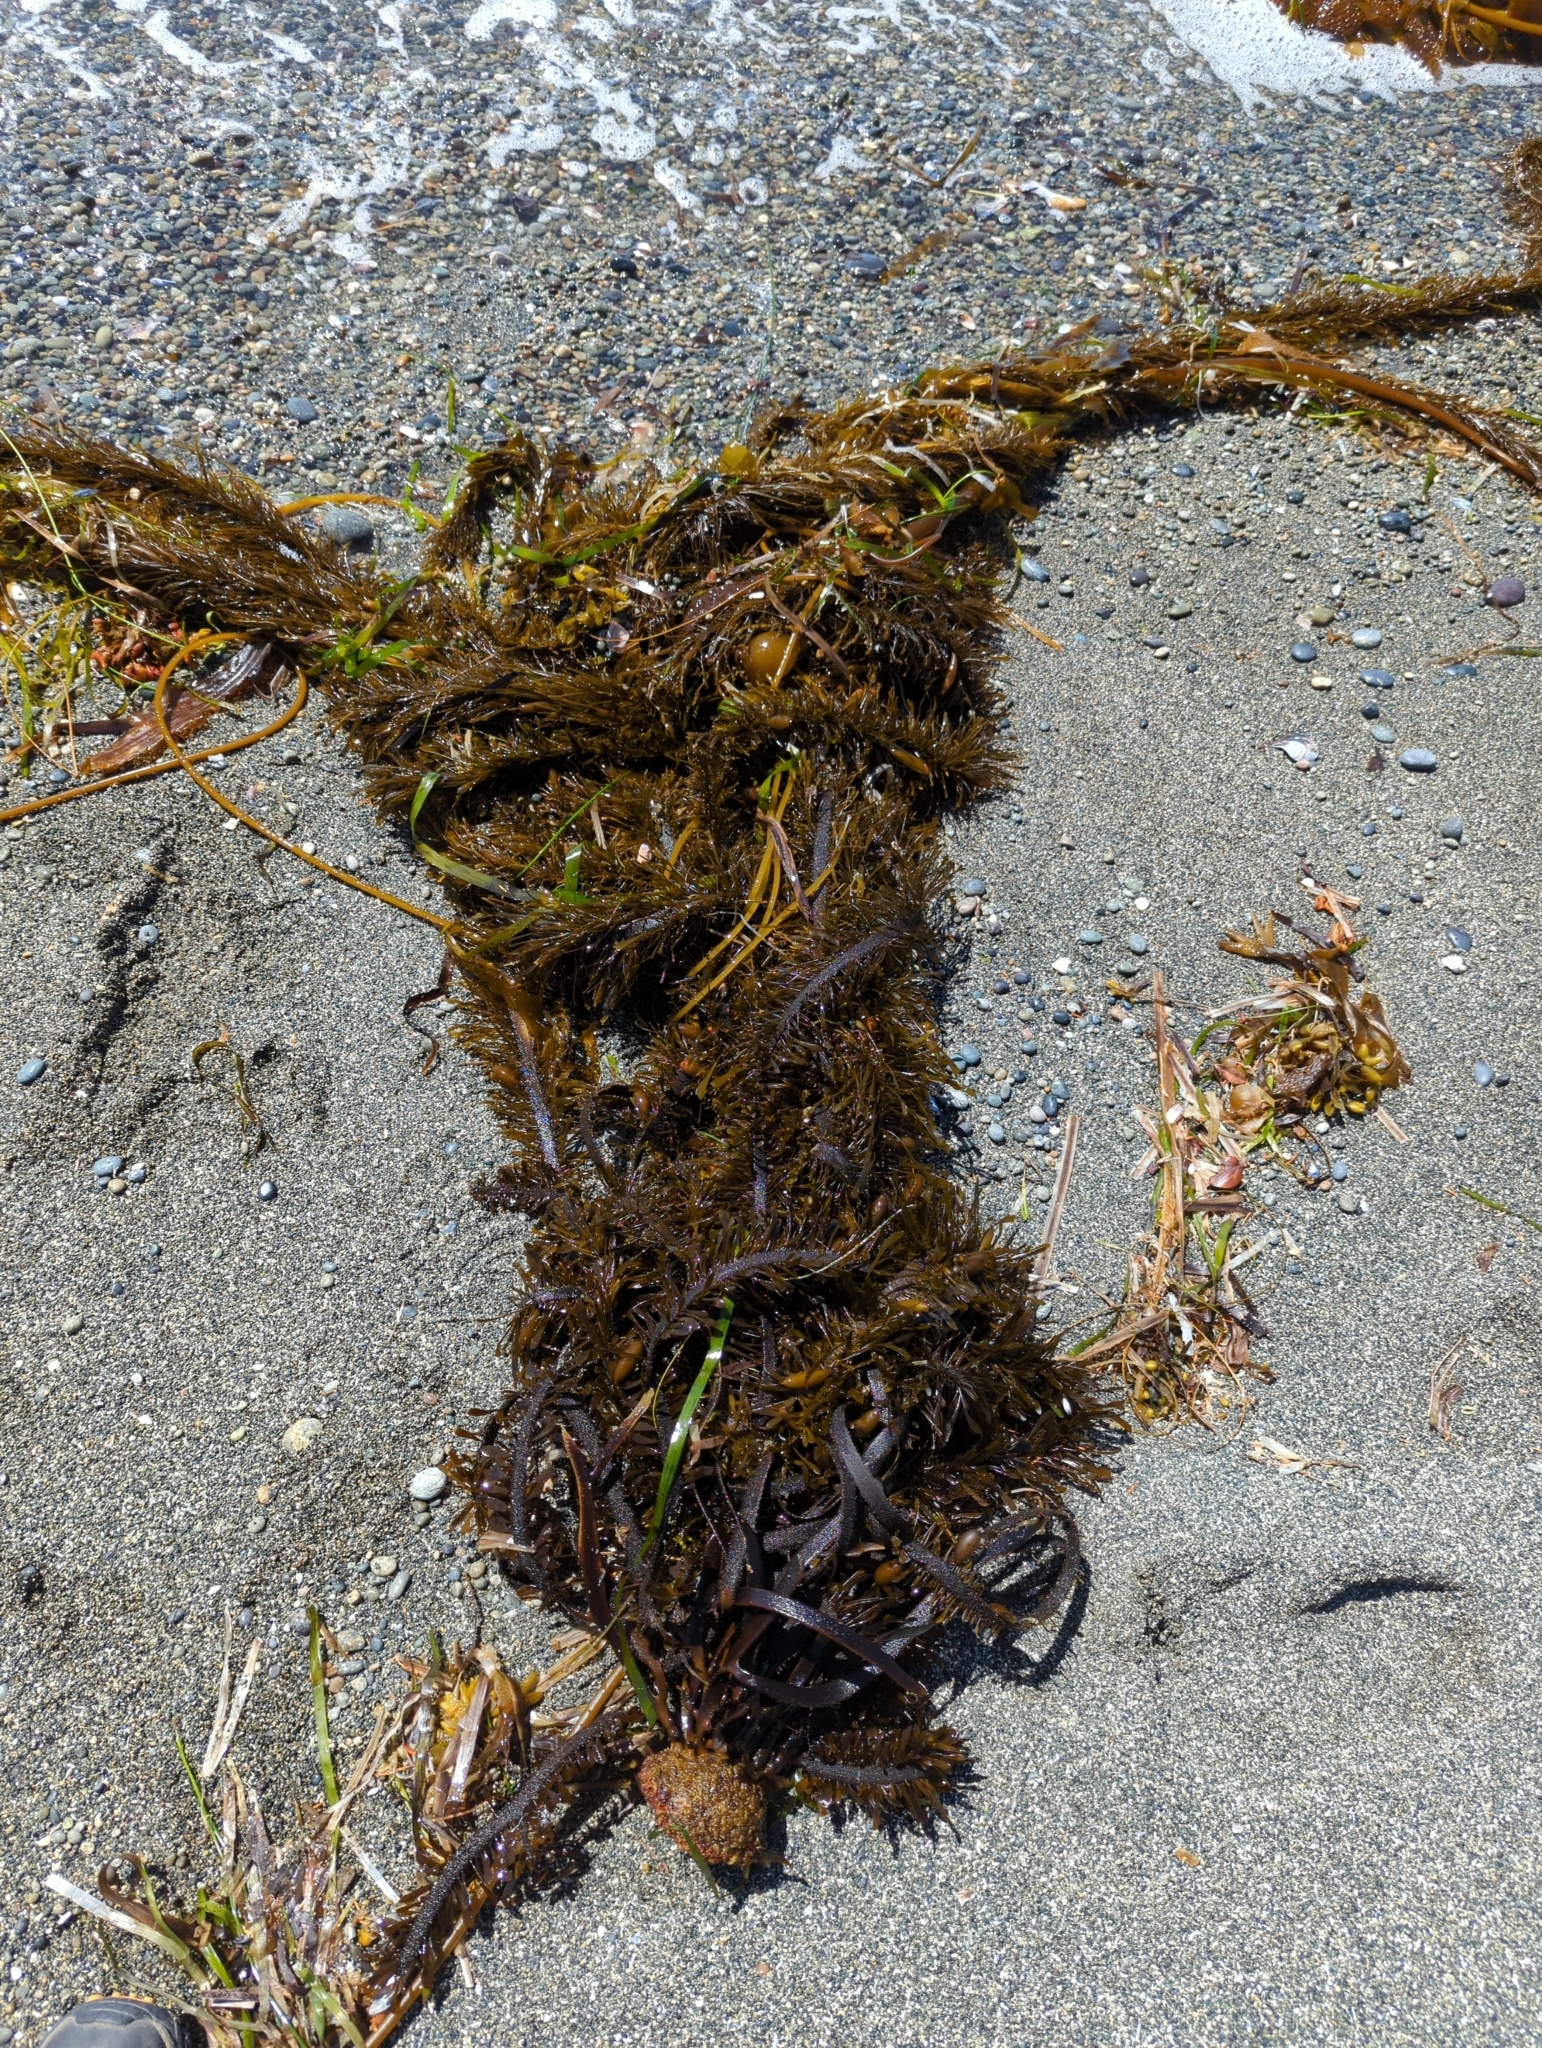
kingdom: Chromista
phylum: Ochrophyta
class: Phaeophyceae
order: Laminariales
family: Lessoniaceae
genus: Egregia
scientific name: Egregia menziesii
